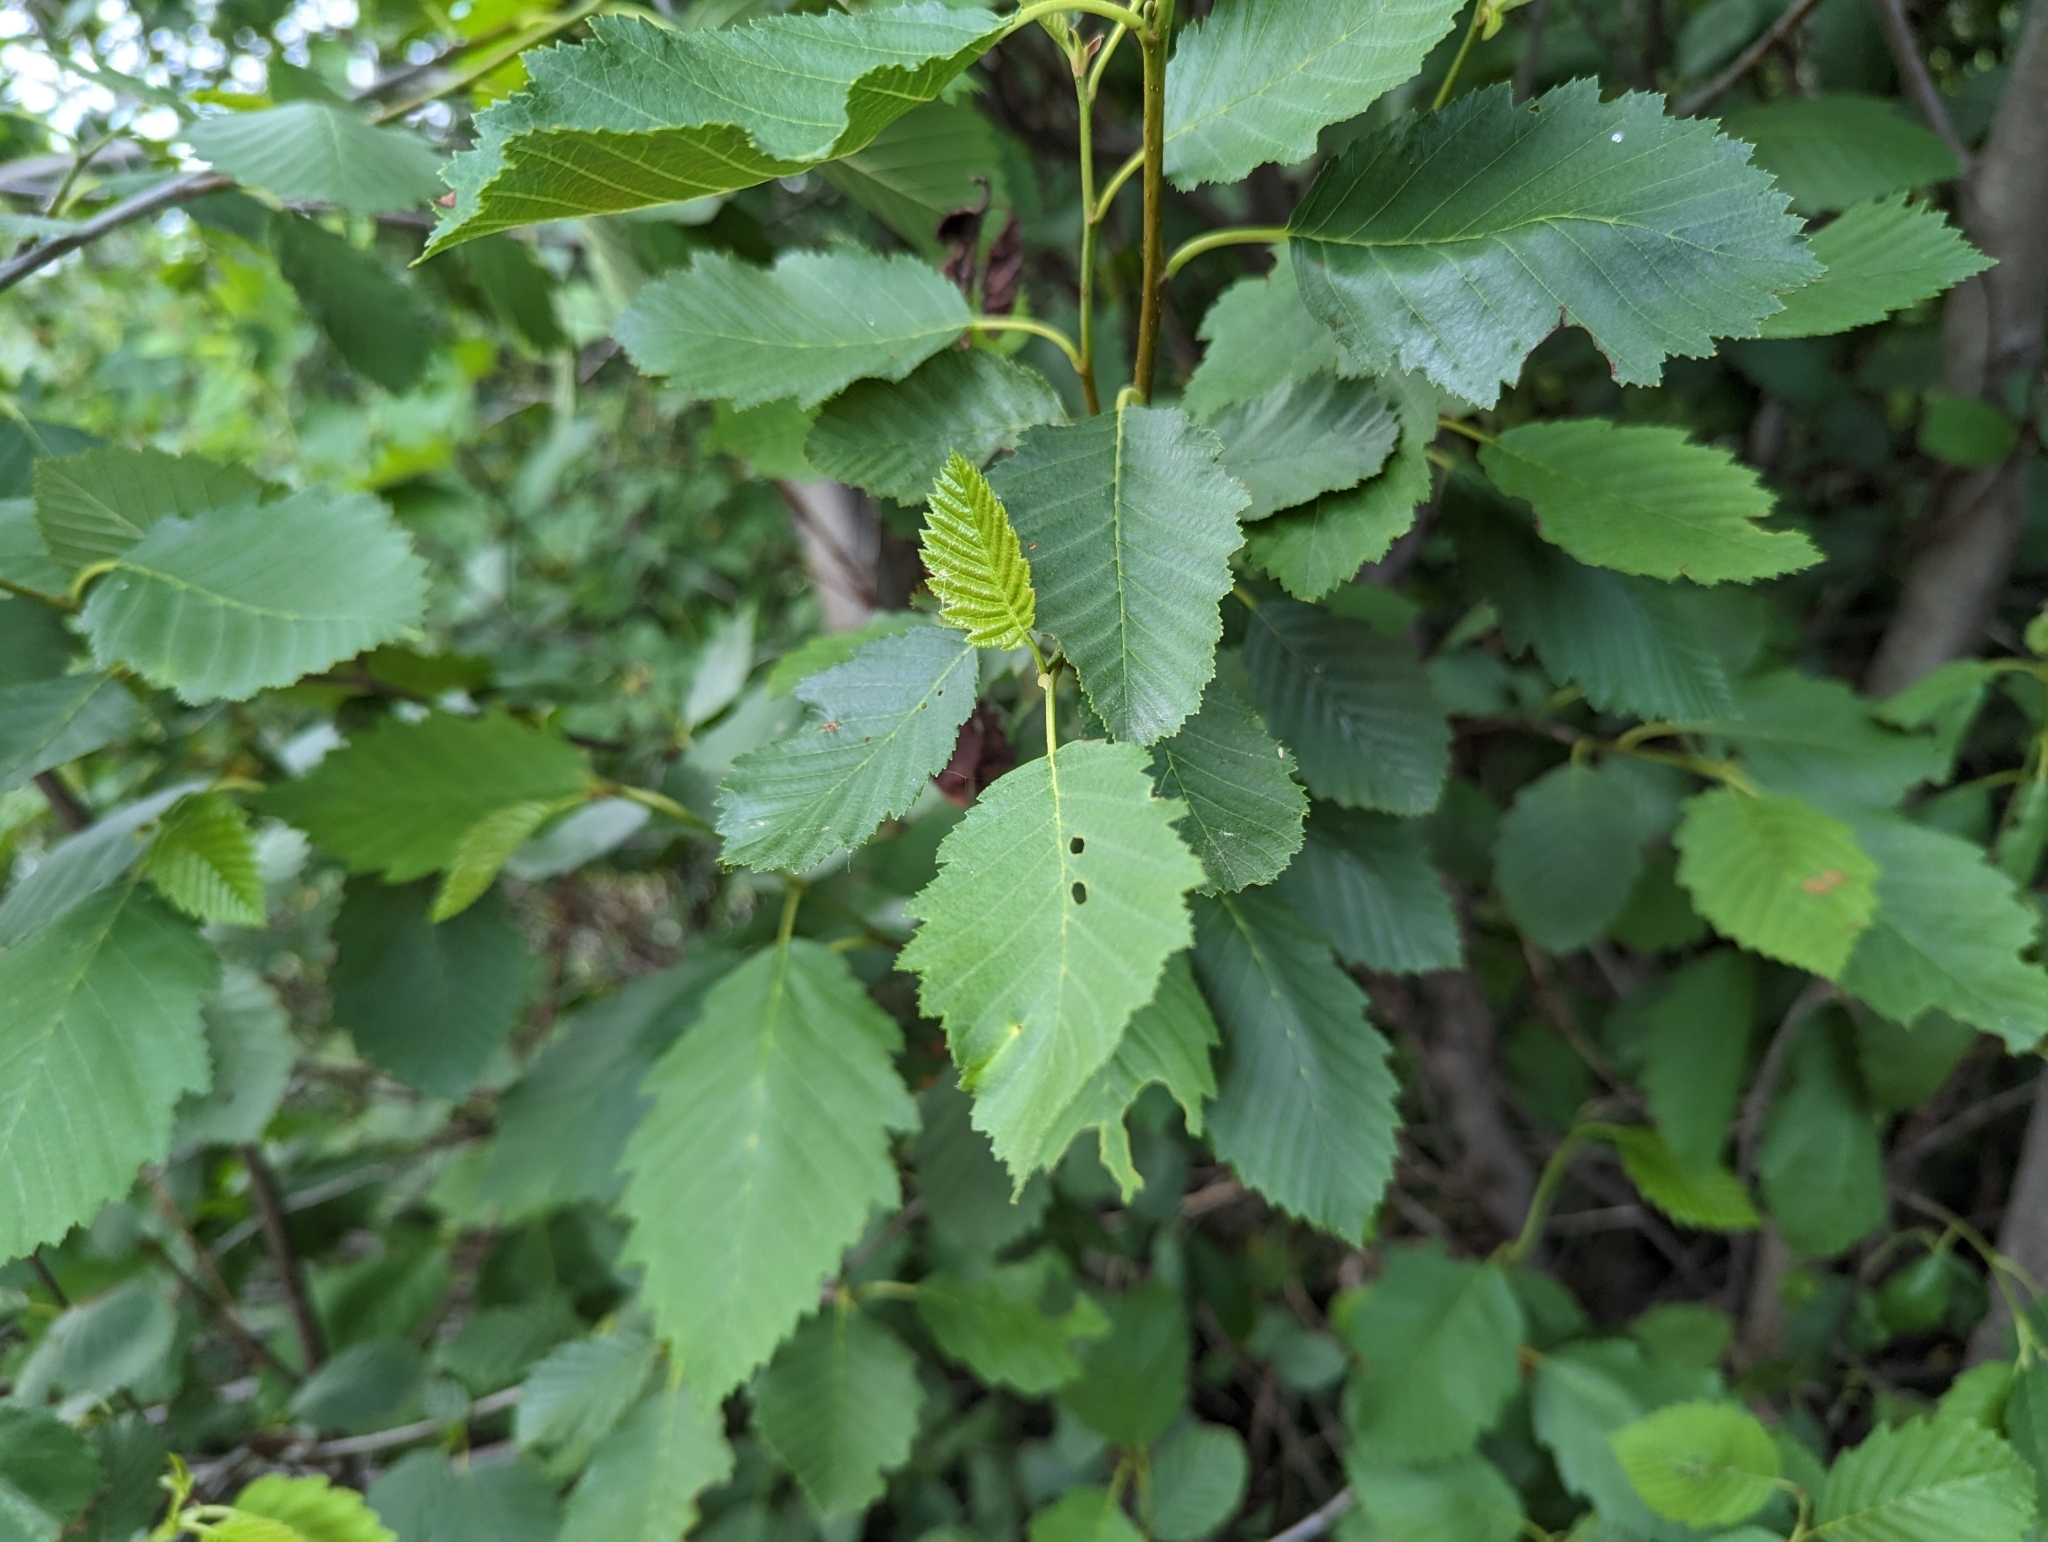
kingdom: Plantae
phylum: Tracheophyta
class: Magnoliopsida
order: Fagales
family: Betulaceae
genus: Alnus
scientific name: Alnus incana
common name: Grey alder
